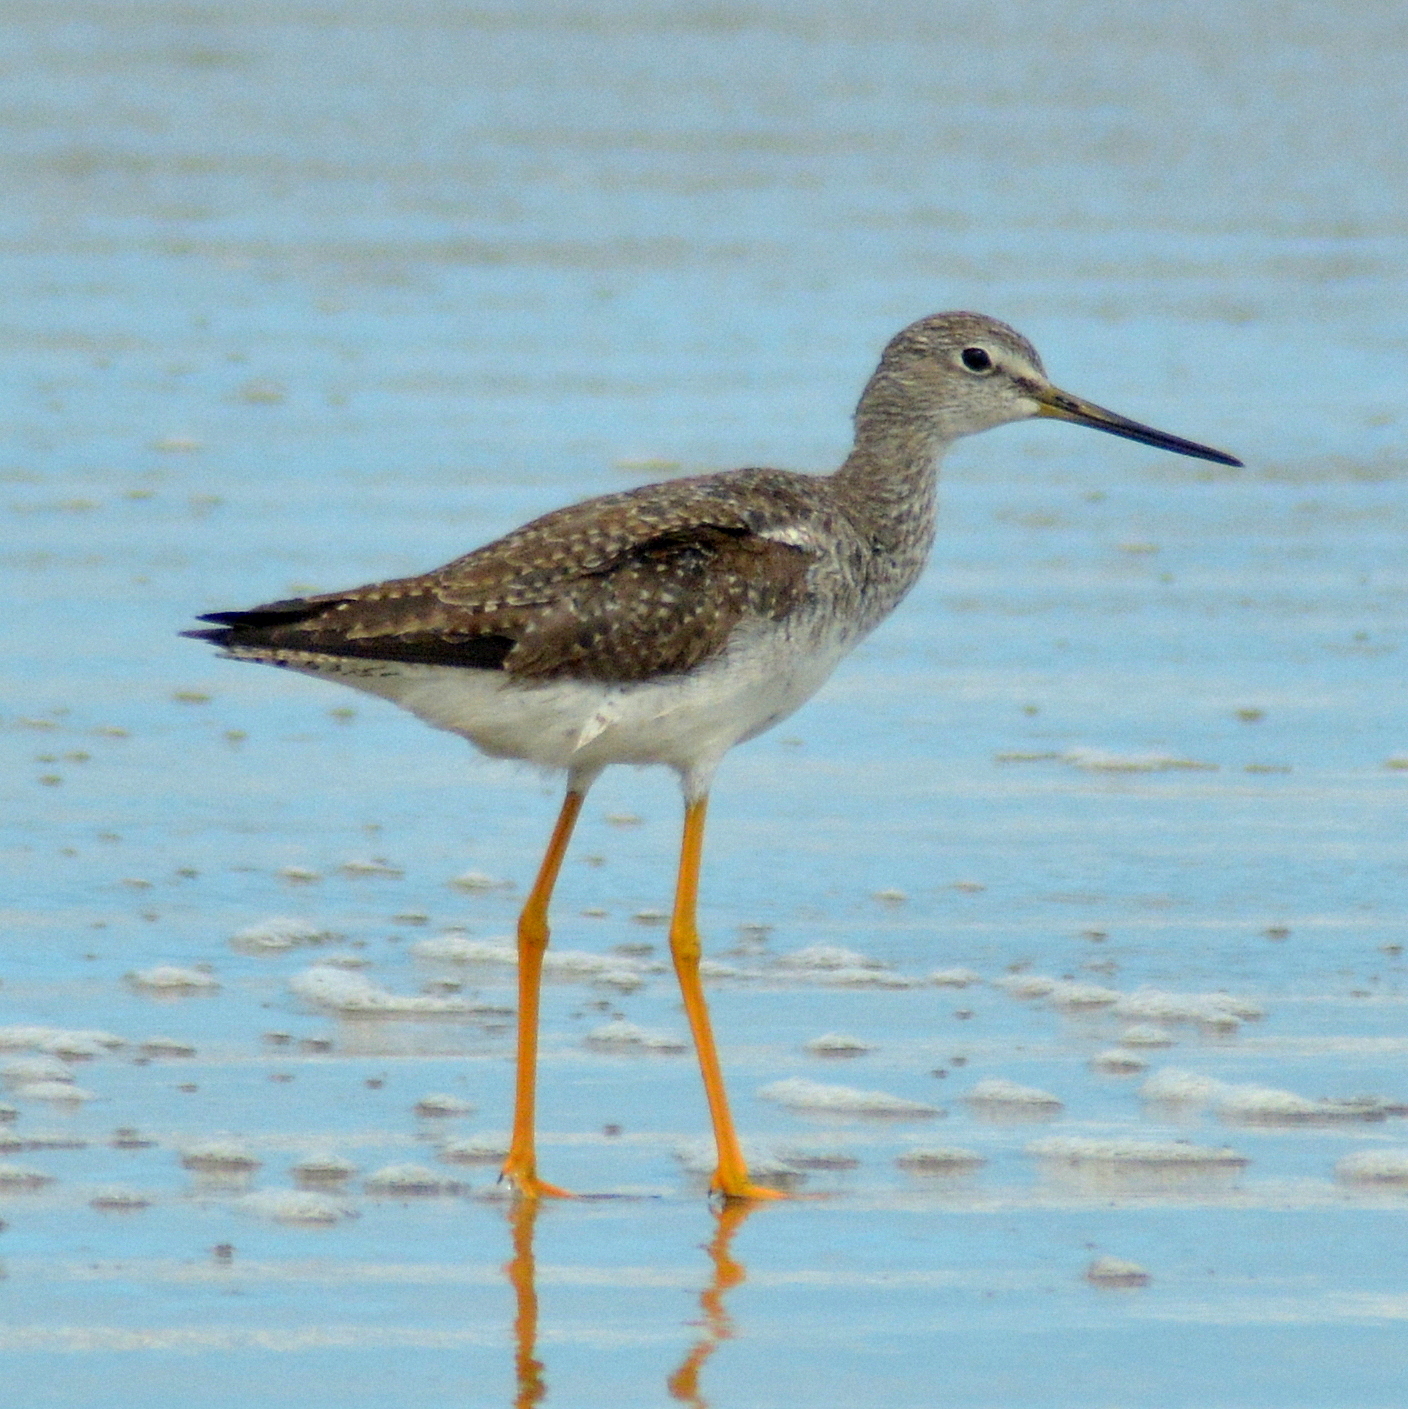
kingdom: Animalia
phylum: Chordata
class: Aves
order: Charadriiformes
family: Scolopacidae
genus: Tringa
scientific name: Tringa melanoleuca
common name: Greater yellowlegs
